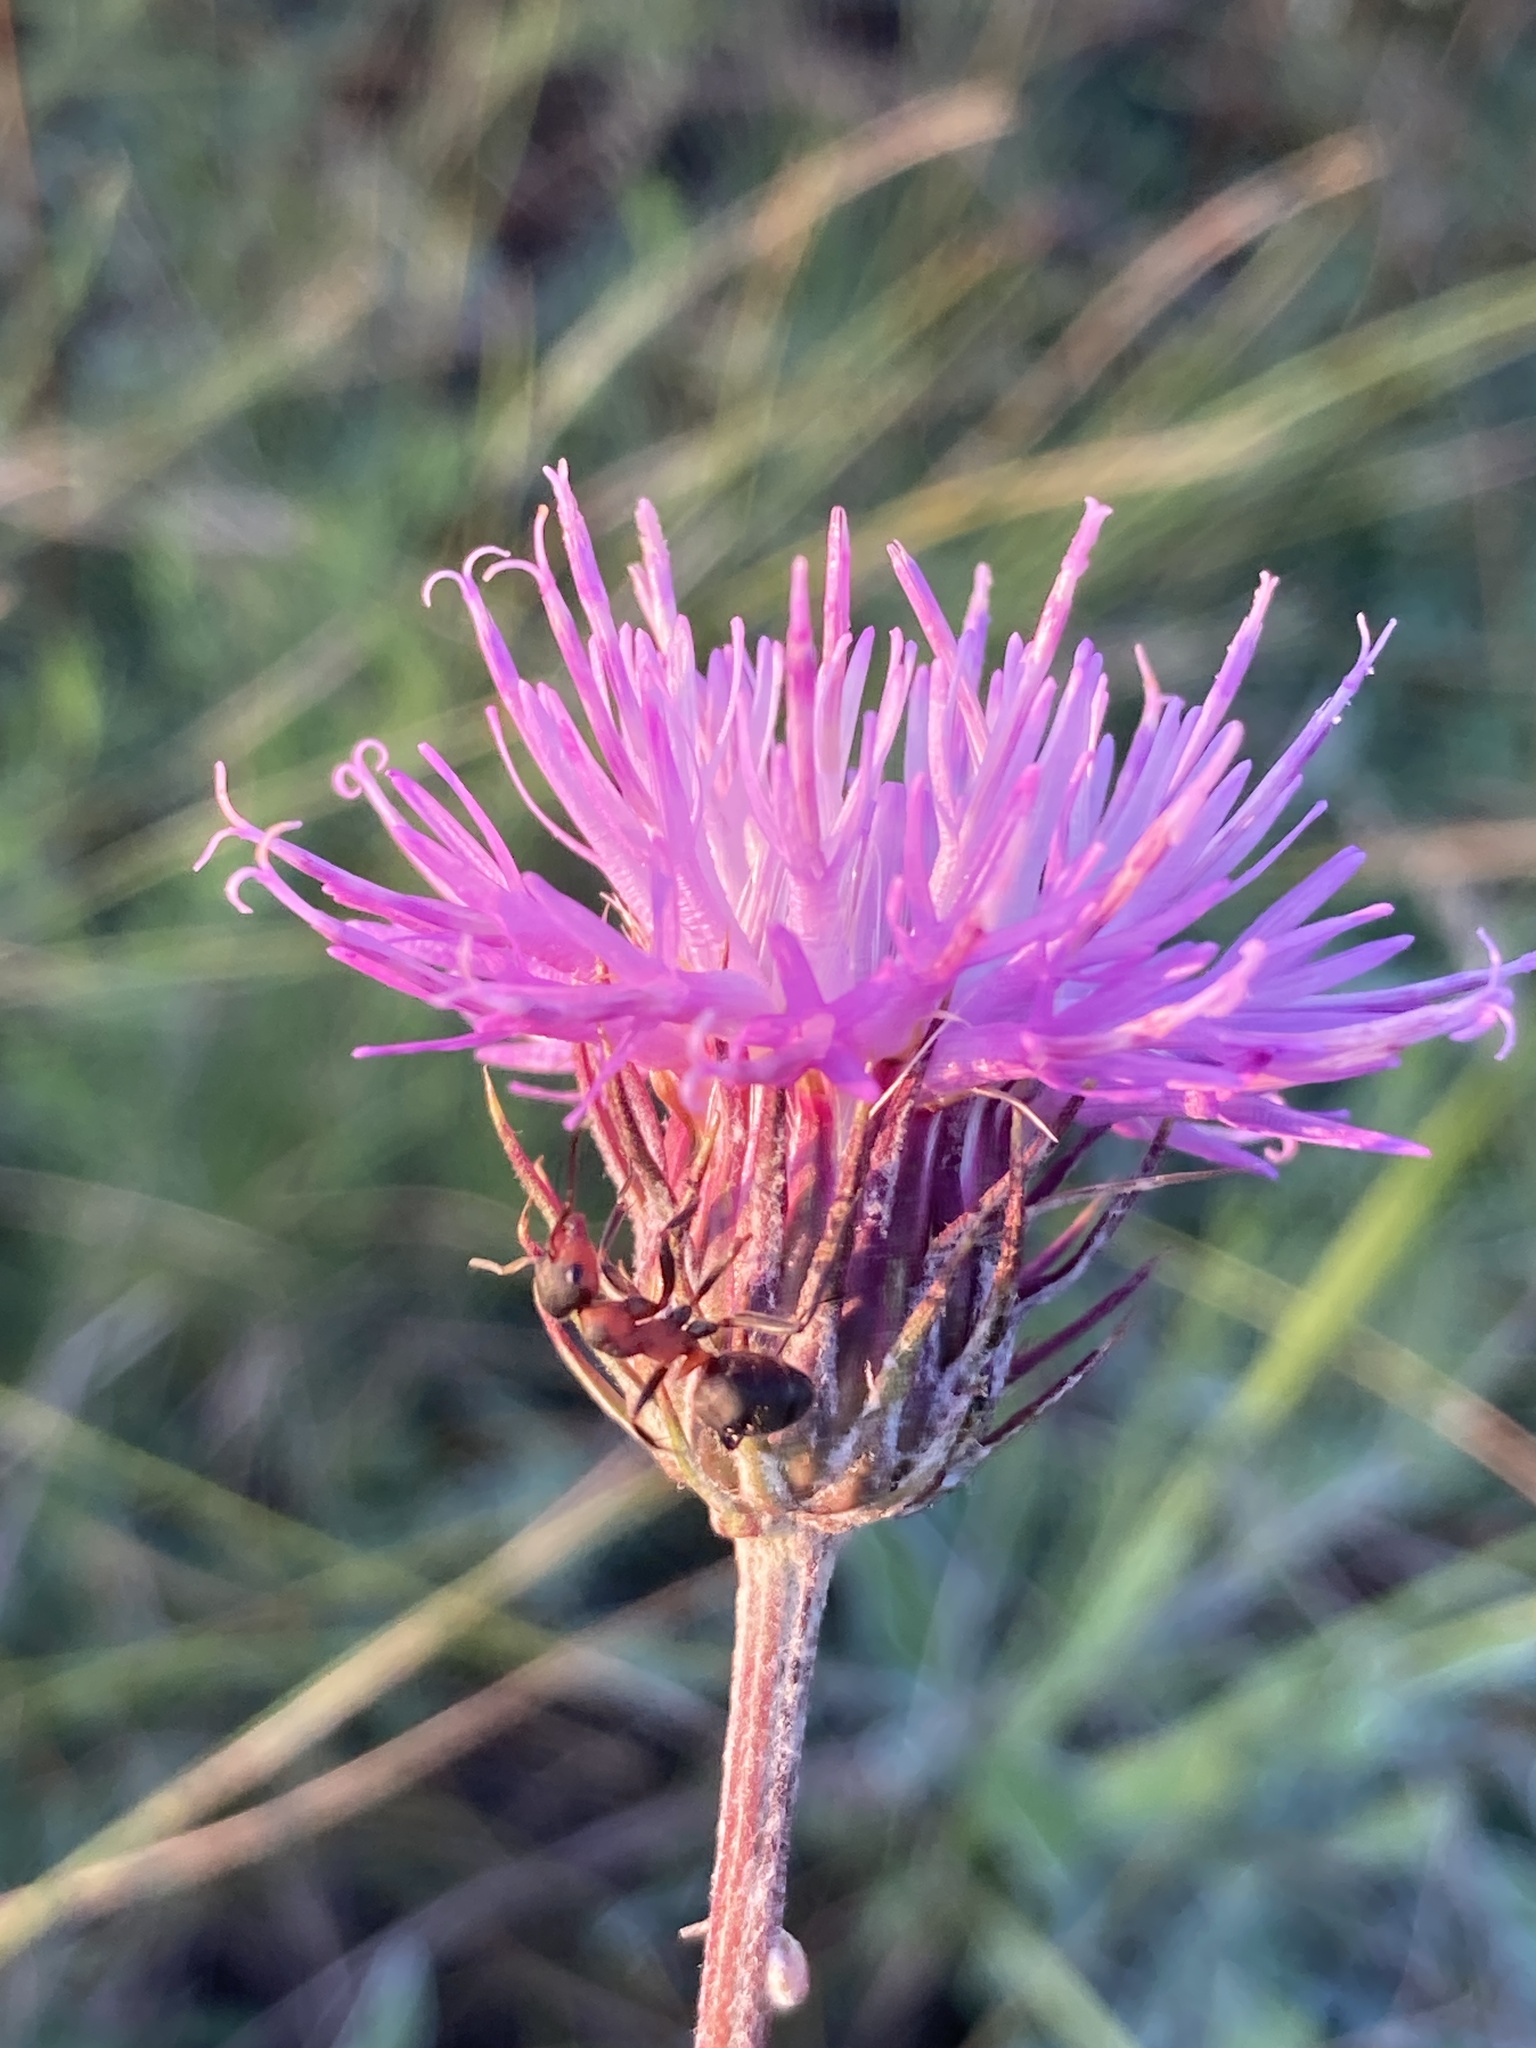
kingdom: Plantae
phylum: Tracheophyta
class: Magnoliopsida
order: Asterales
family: Asteraceae
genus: Jurinea
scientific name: Jurinea cyanoides
